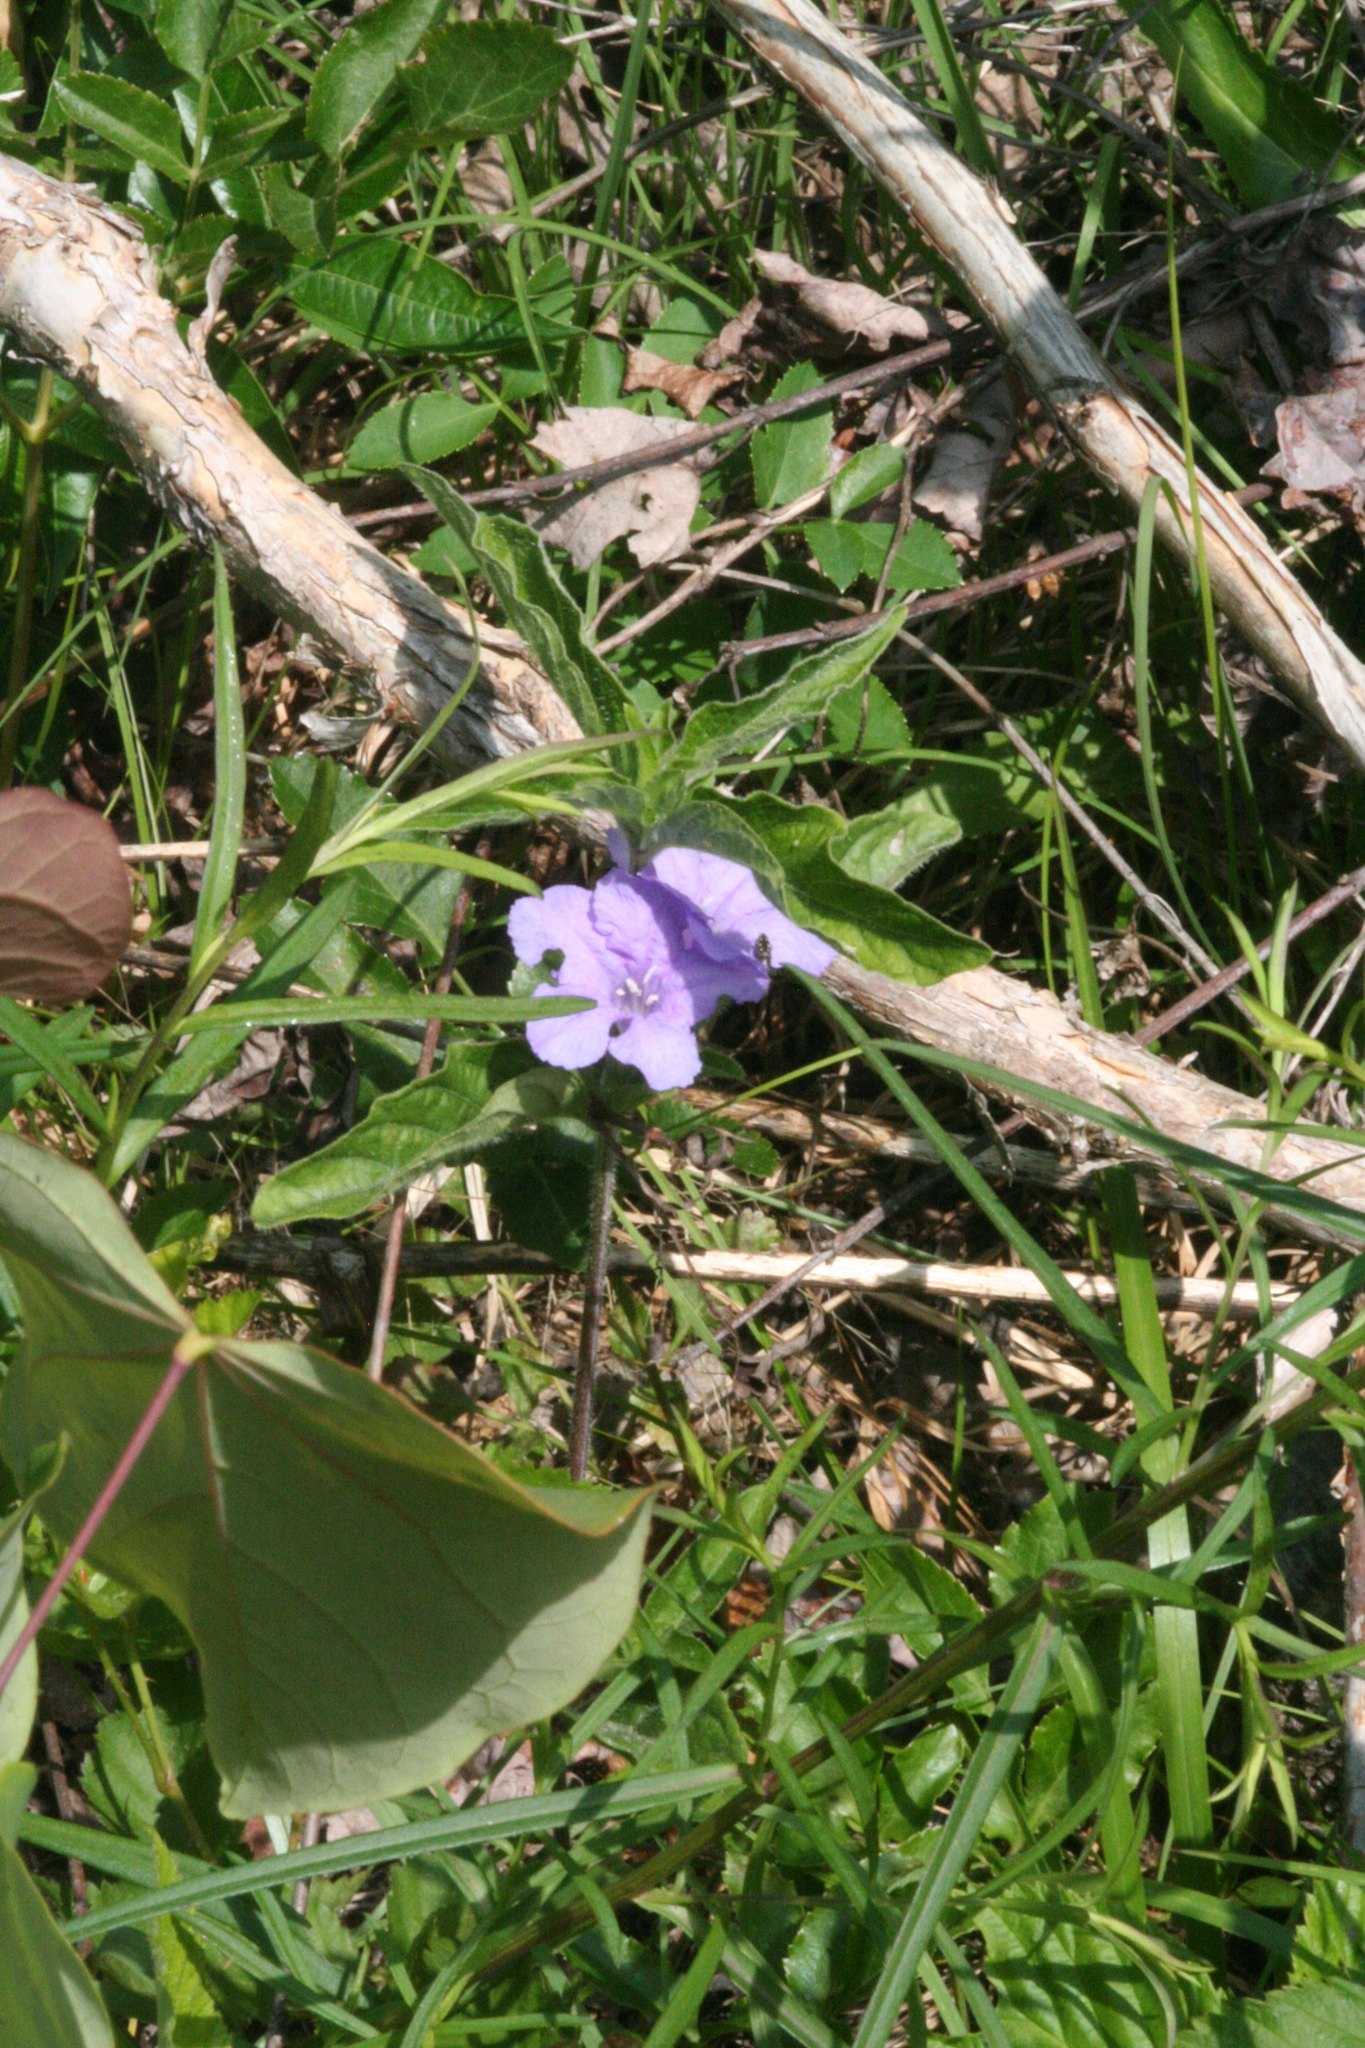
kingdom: Plantae
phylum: Tracheophyta
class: Magnoliopsida
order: Lamiales
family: Acanthaceae
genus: Ruellia
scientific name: Ruellia caroliniensis
